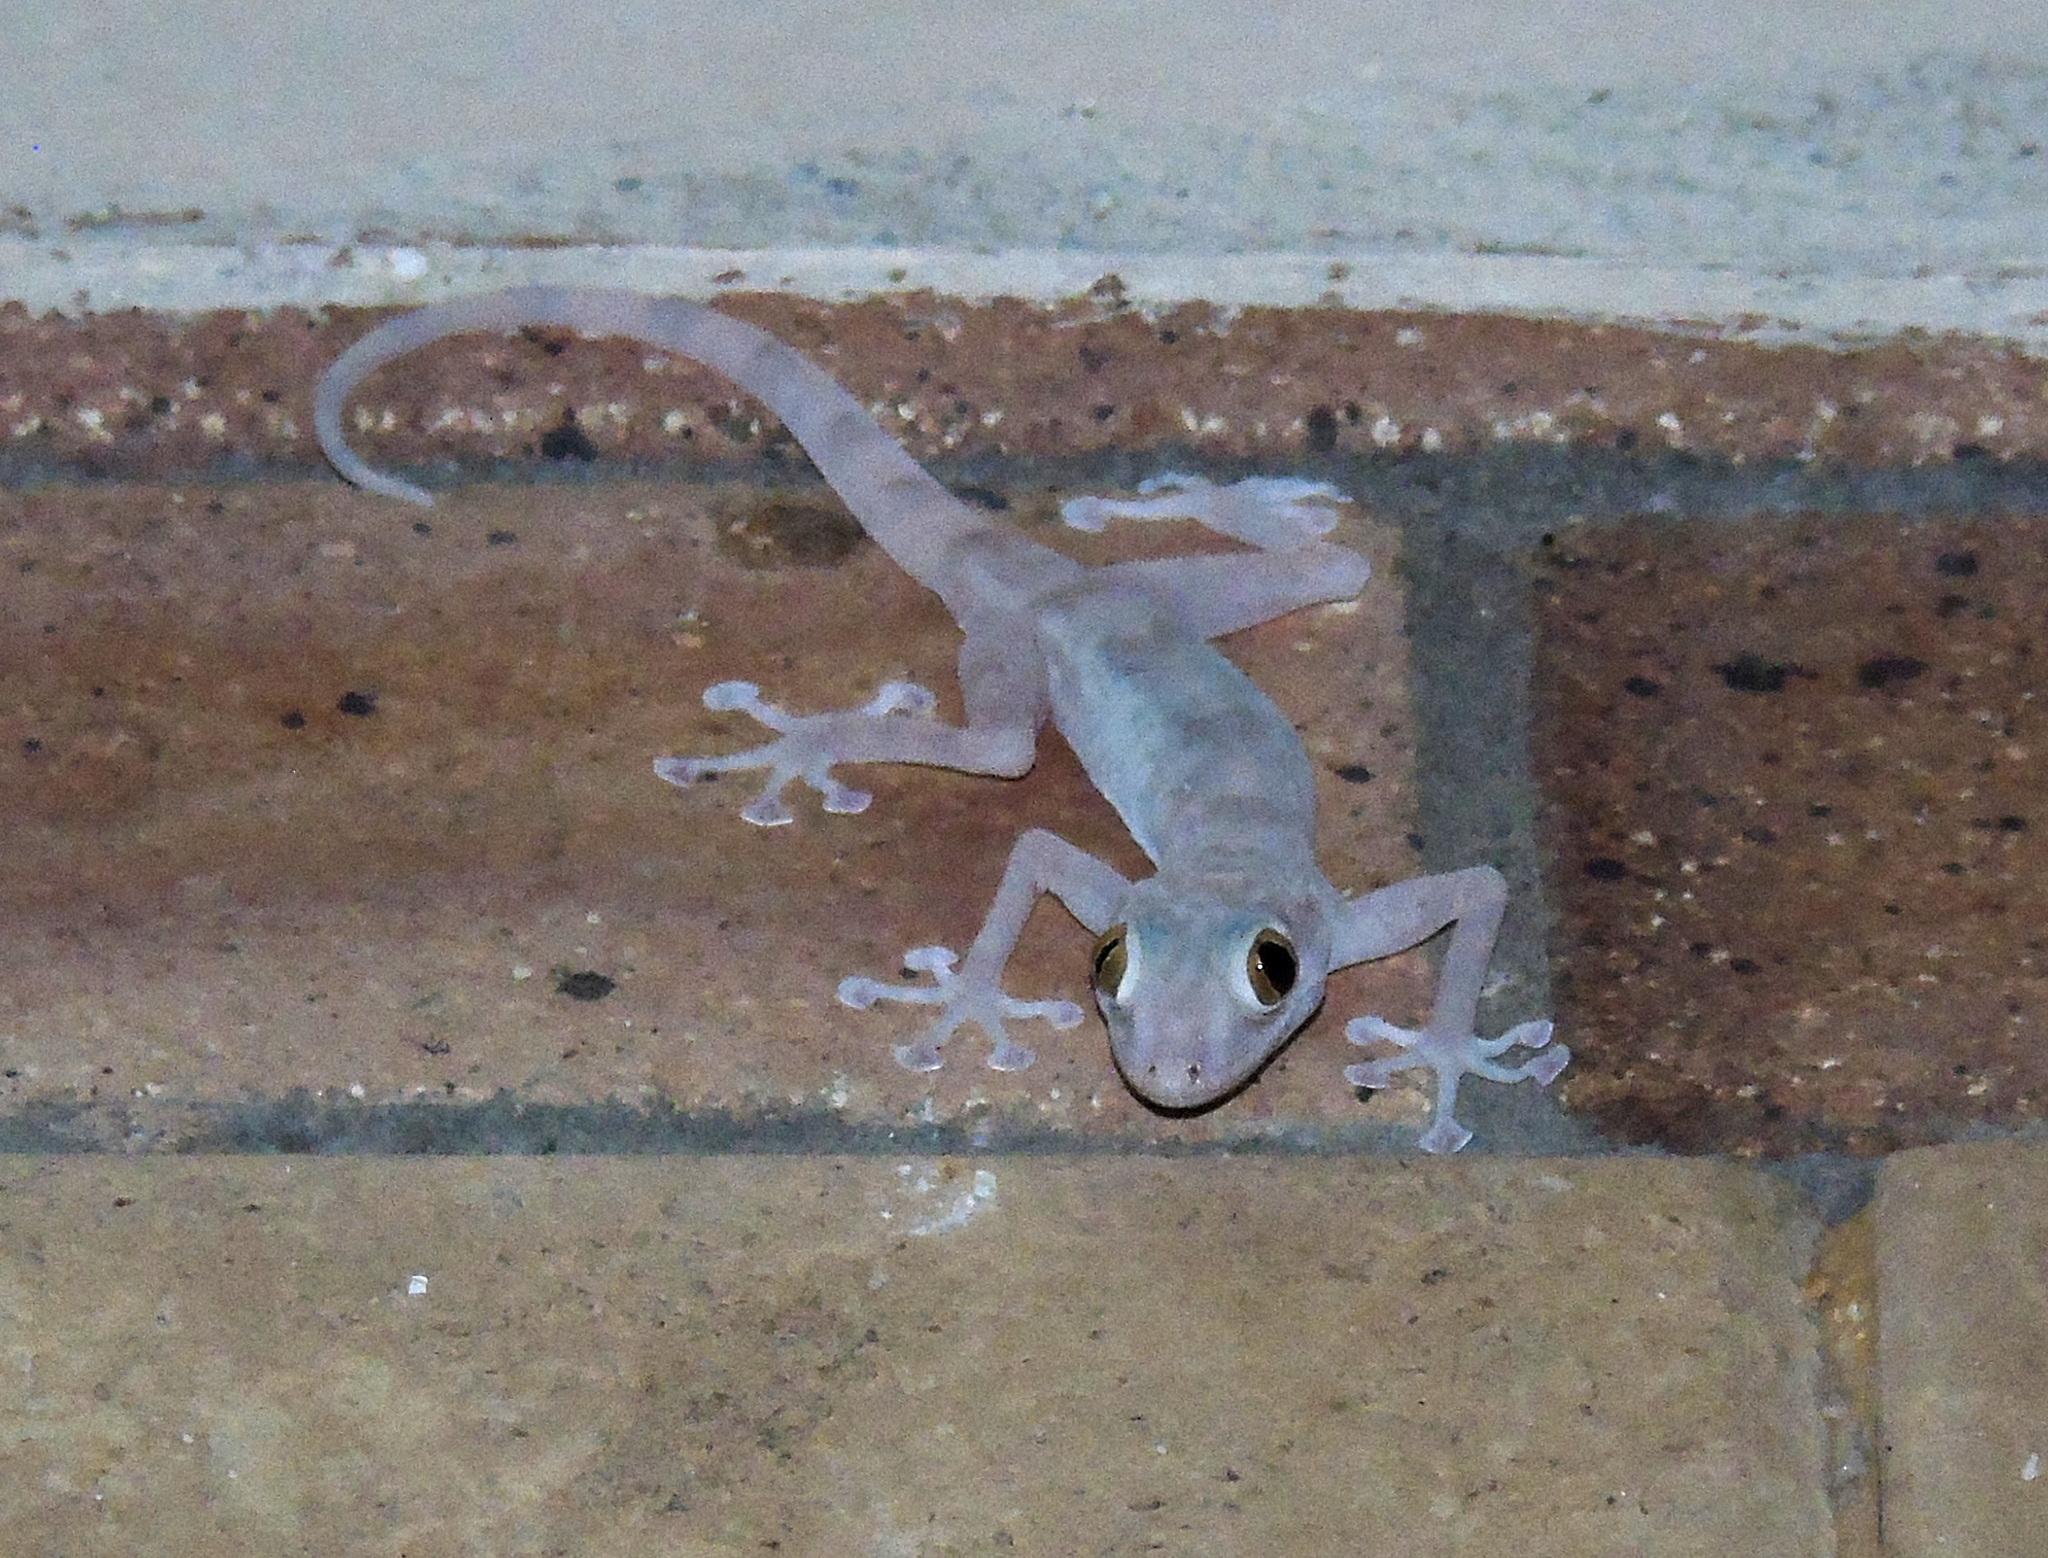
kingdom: Animalia
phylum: Chordata
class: Squamata
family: Phyllodactylidae
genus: Ptyodactylus
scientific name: Ptyodactylus hasselquistii
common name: Hasselquist’s fan-footed gecko
